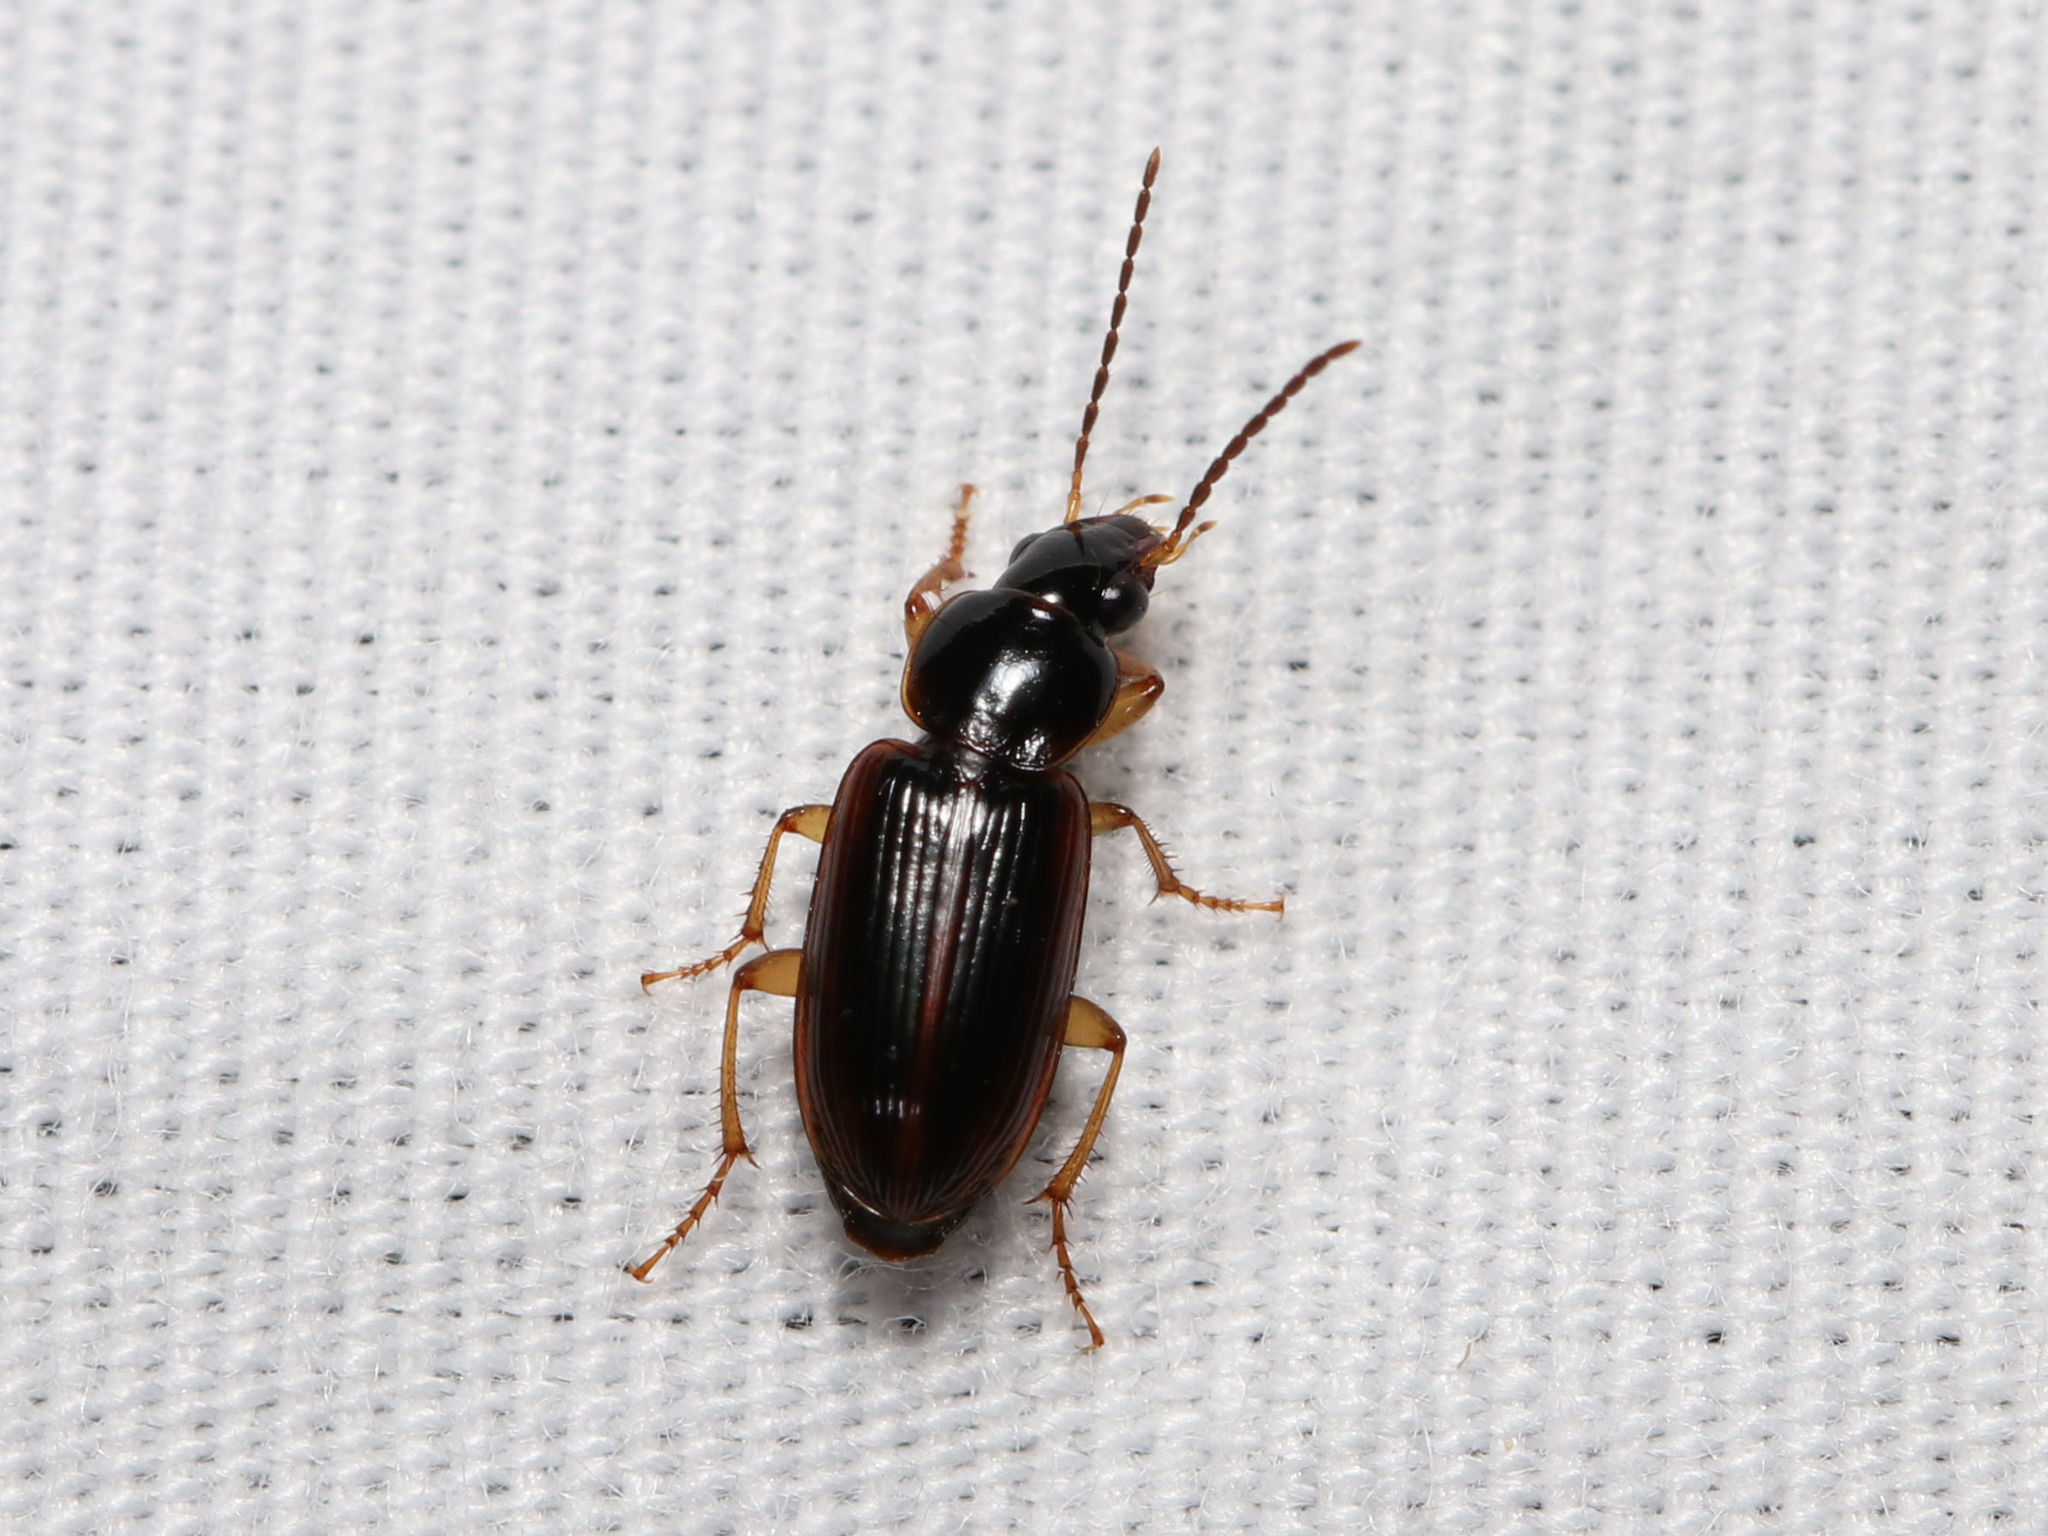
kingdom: Animalia
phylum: Arthropoda
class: Insecta
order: Coleoptera
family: Carabidae
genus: Stenolophus
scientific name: Stenolophus ochropezus
